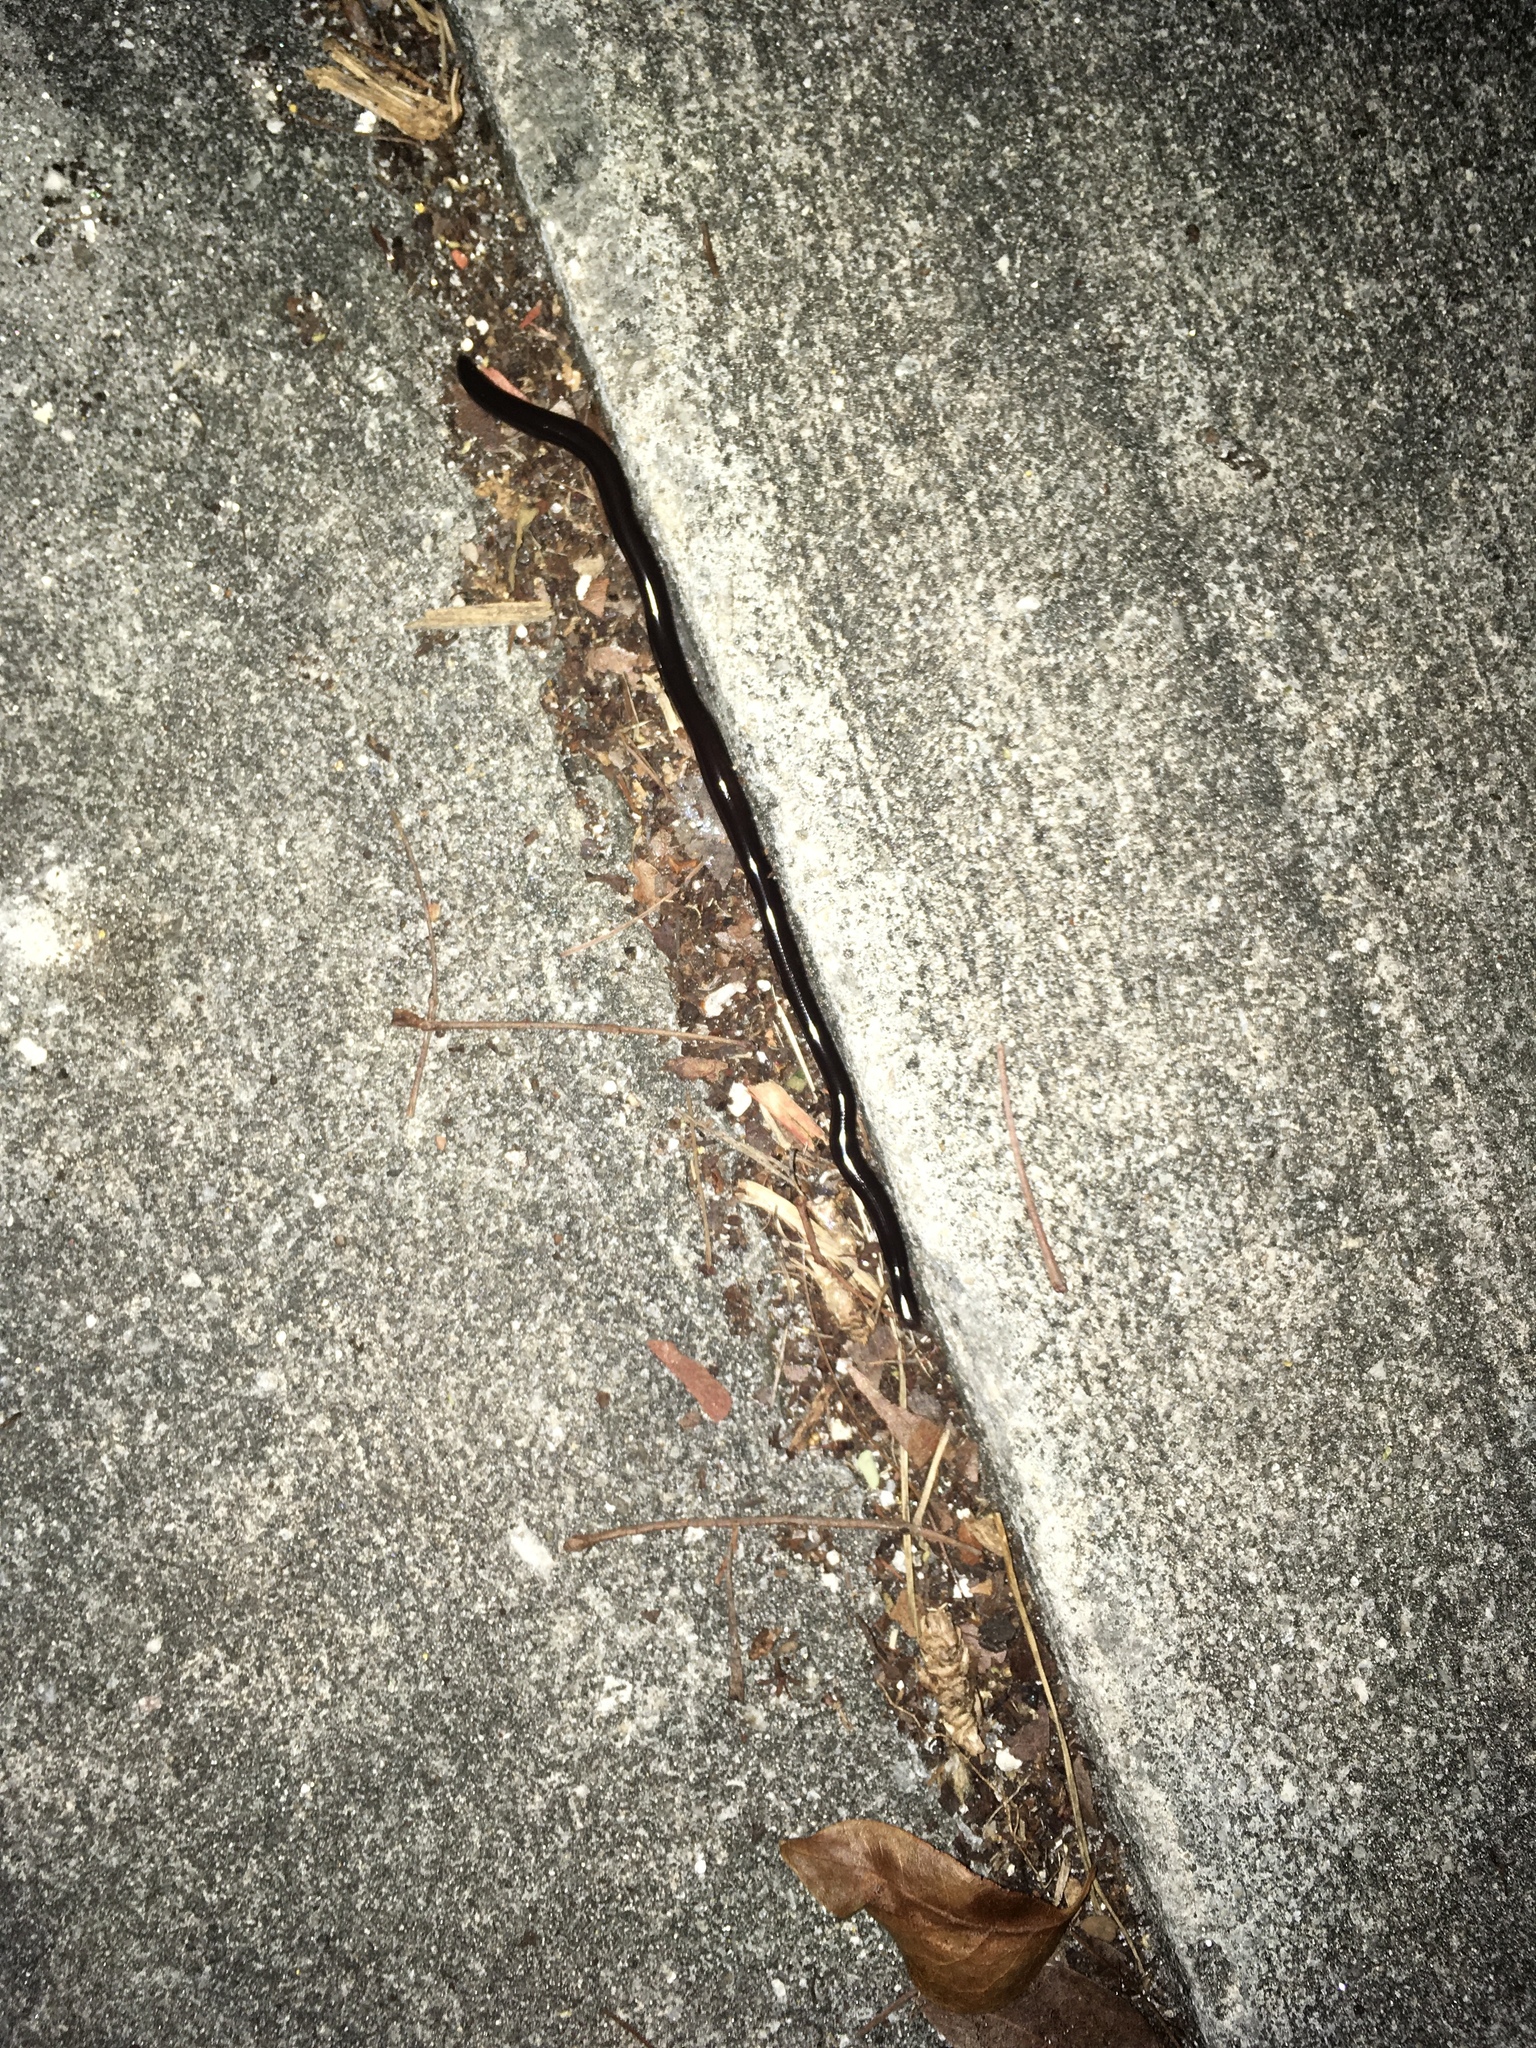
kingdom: Animalia
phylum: Chordata
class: Squamata
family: Typhlopidae
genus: Indotyphlops
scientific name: Indotyphlops braminus
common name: Brahminy blindsnake
